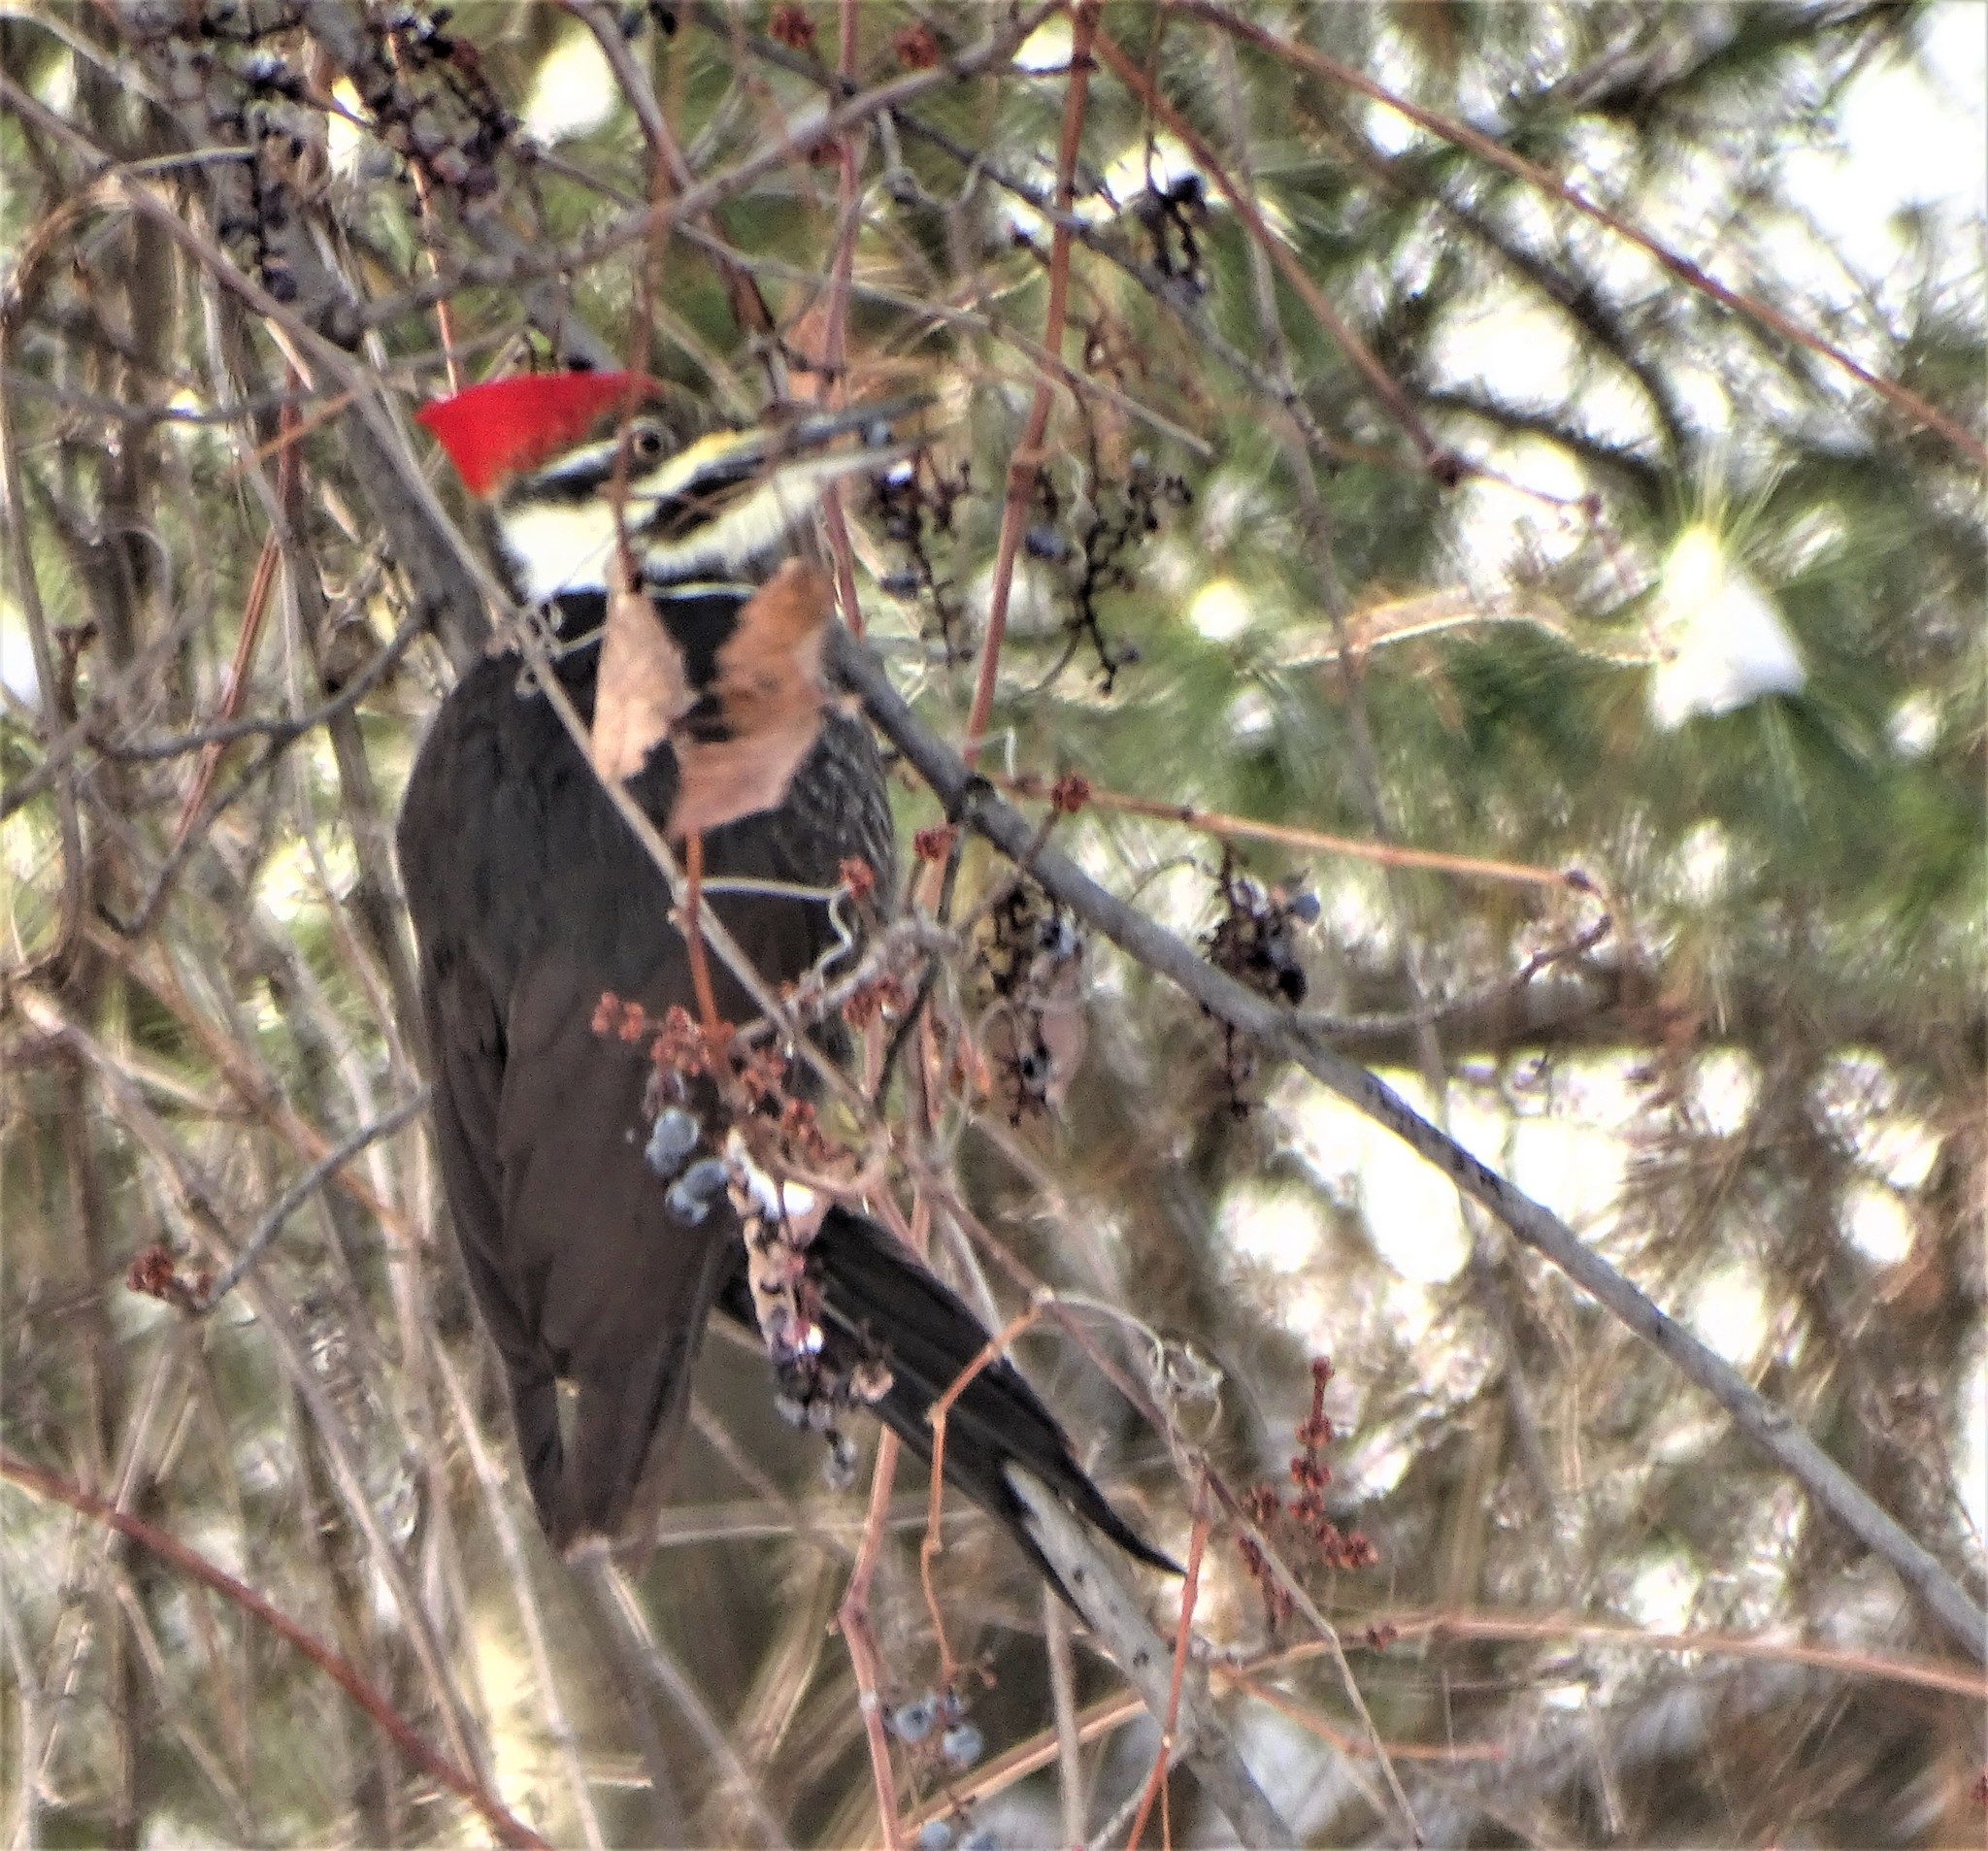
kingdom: Animalia
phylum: Chordata
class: Aves
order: Piciformes
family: Picidae
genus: Dryocopus
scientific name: Dryocopus pileatus
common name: Pileated woodpecker
